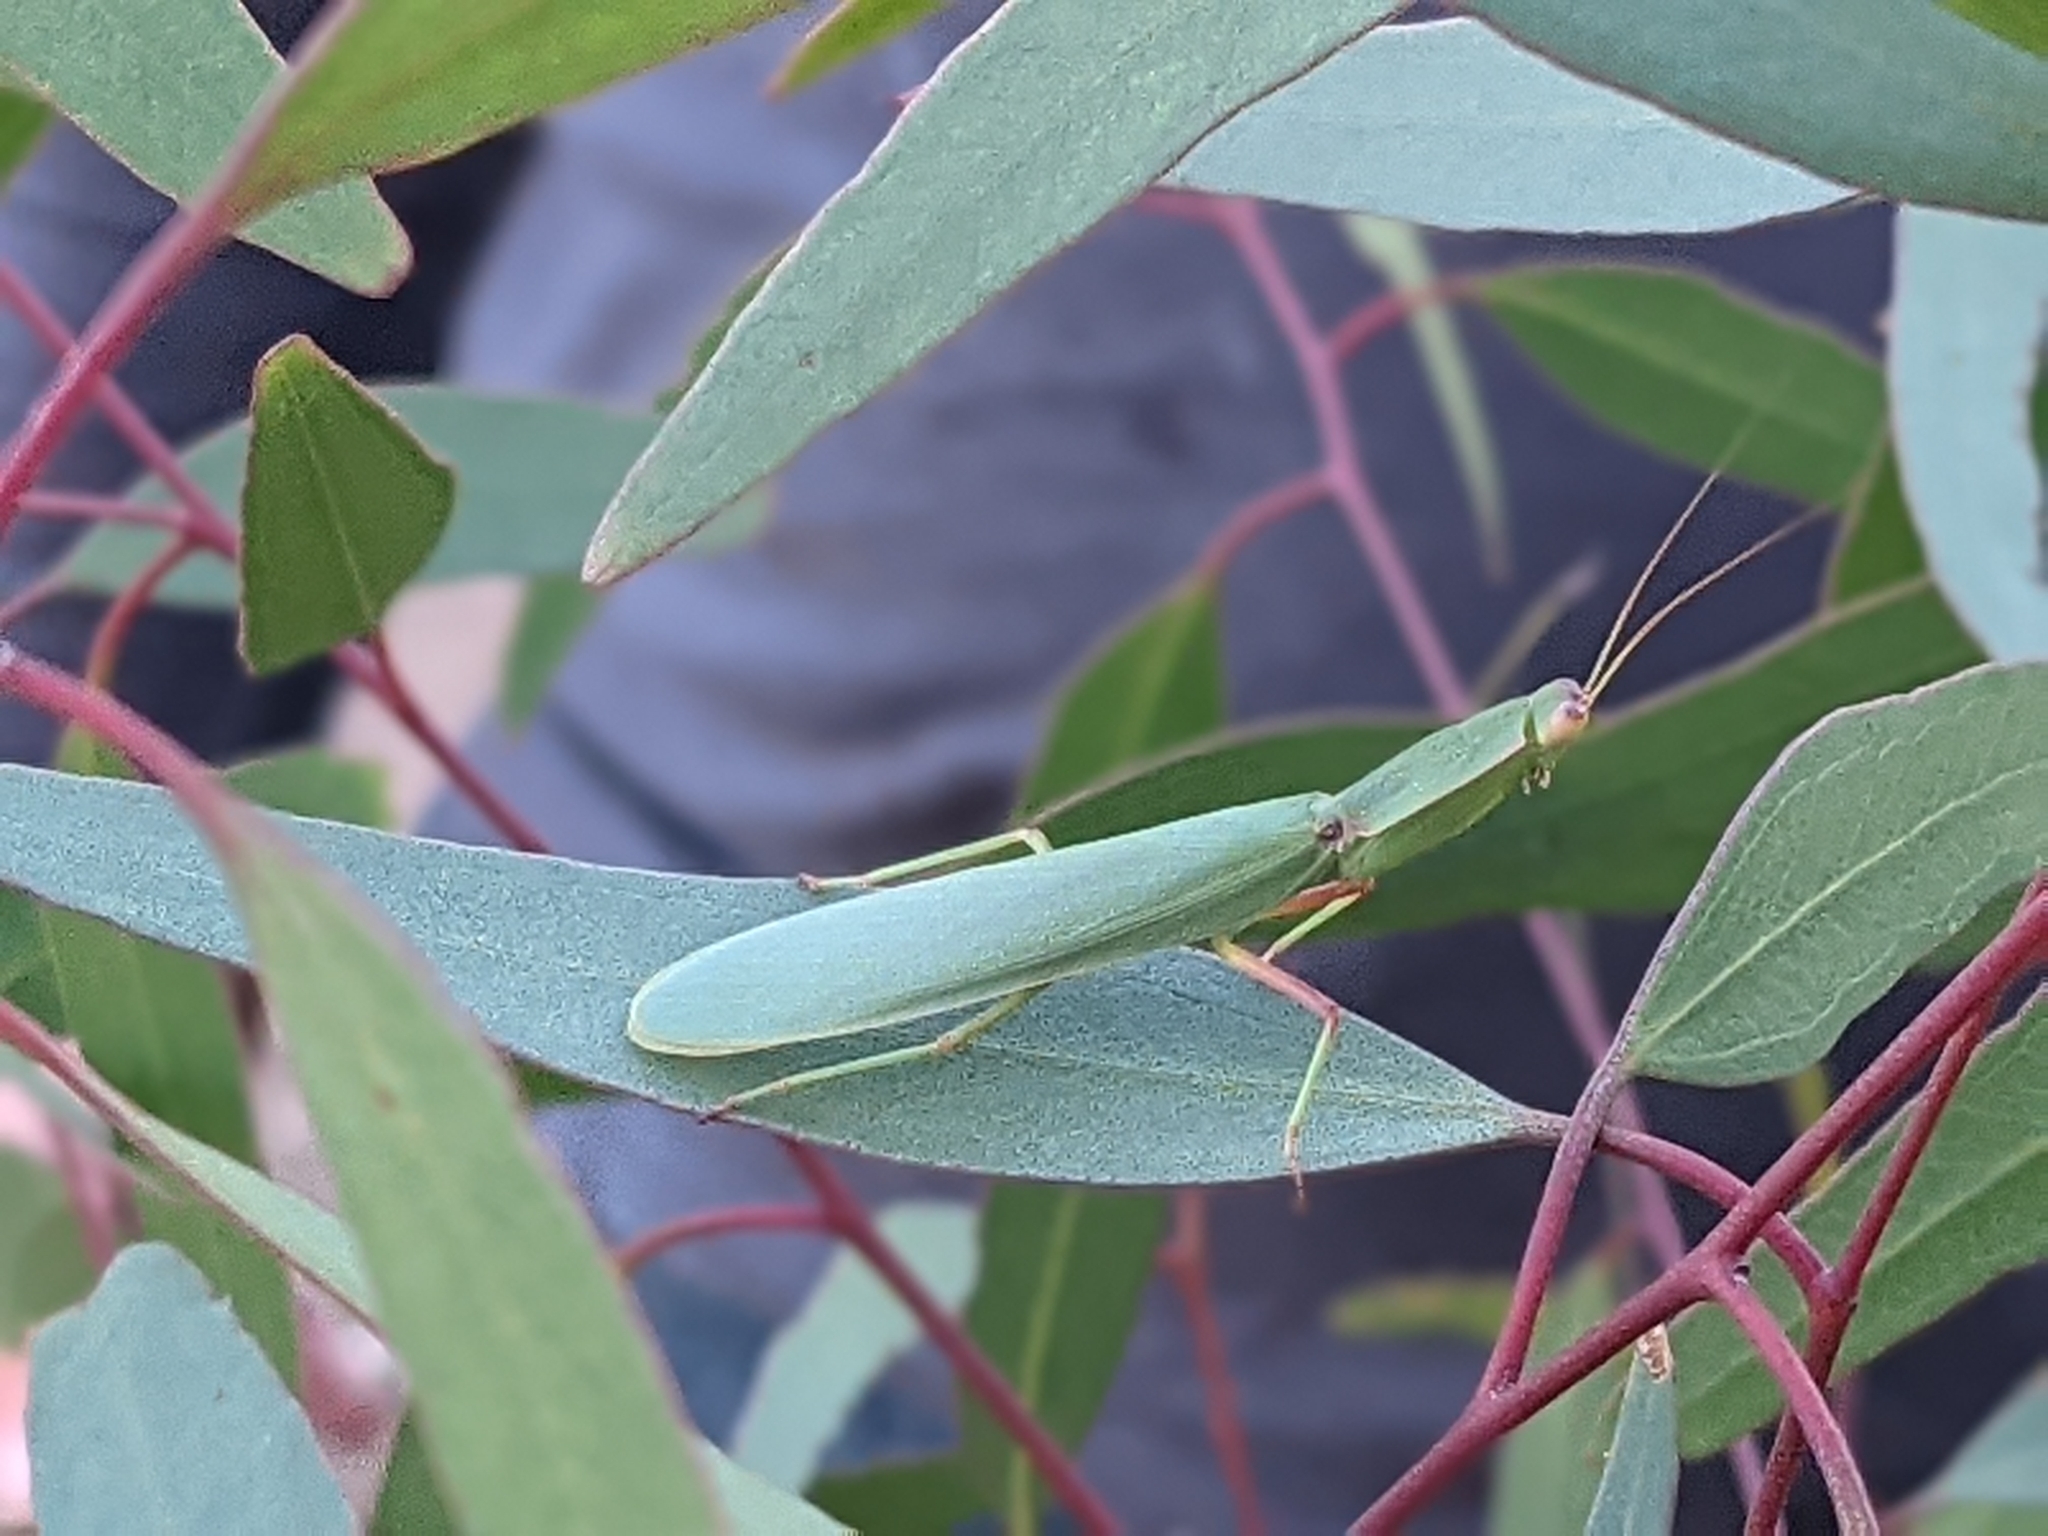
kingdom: Animalia
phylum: Arthropoda
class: Insecta
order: Mantodea
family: Mantidae
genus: Orthodera
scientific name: Orthodera ministralis
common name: Mantis
